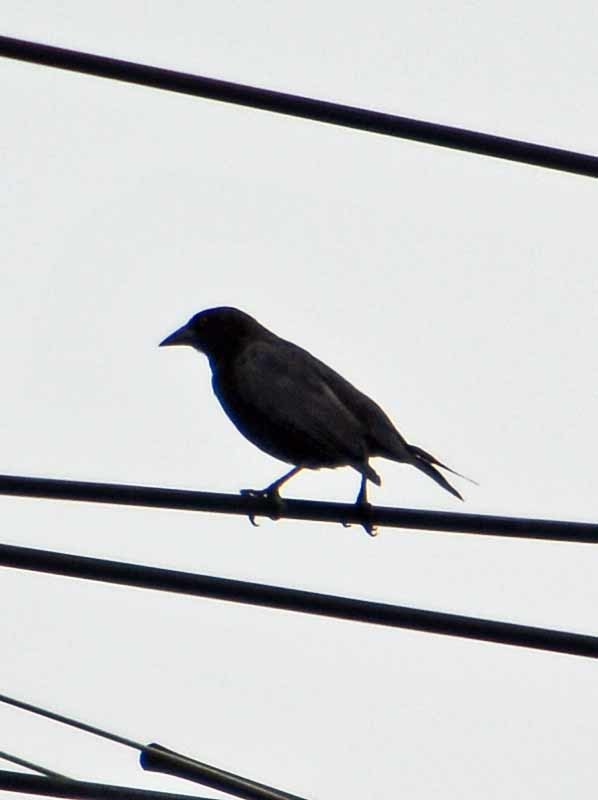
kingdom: Animalia
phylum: Chordata
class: Aves
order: Passeriformes
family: Icteridae
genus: Molothrus
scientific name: Molothrus aeneus
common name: Bronzed cowbird
